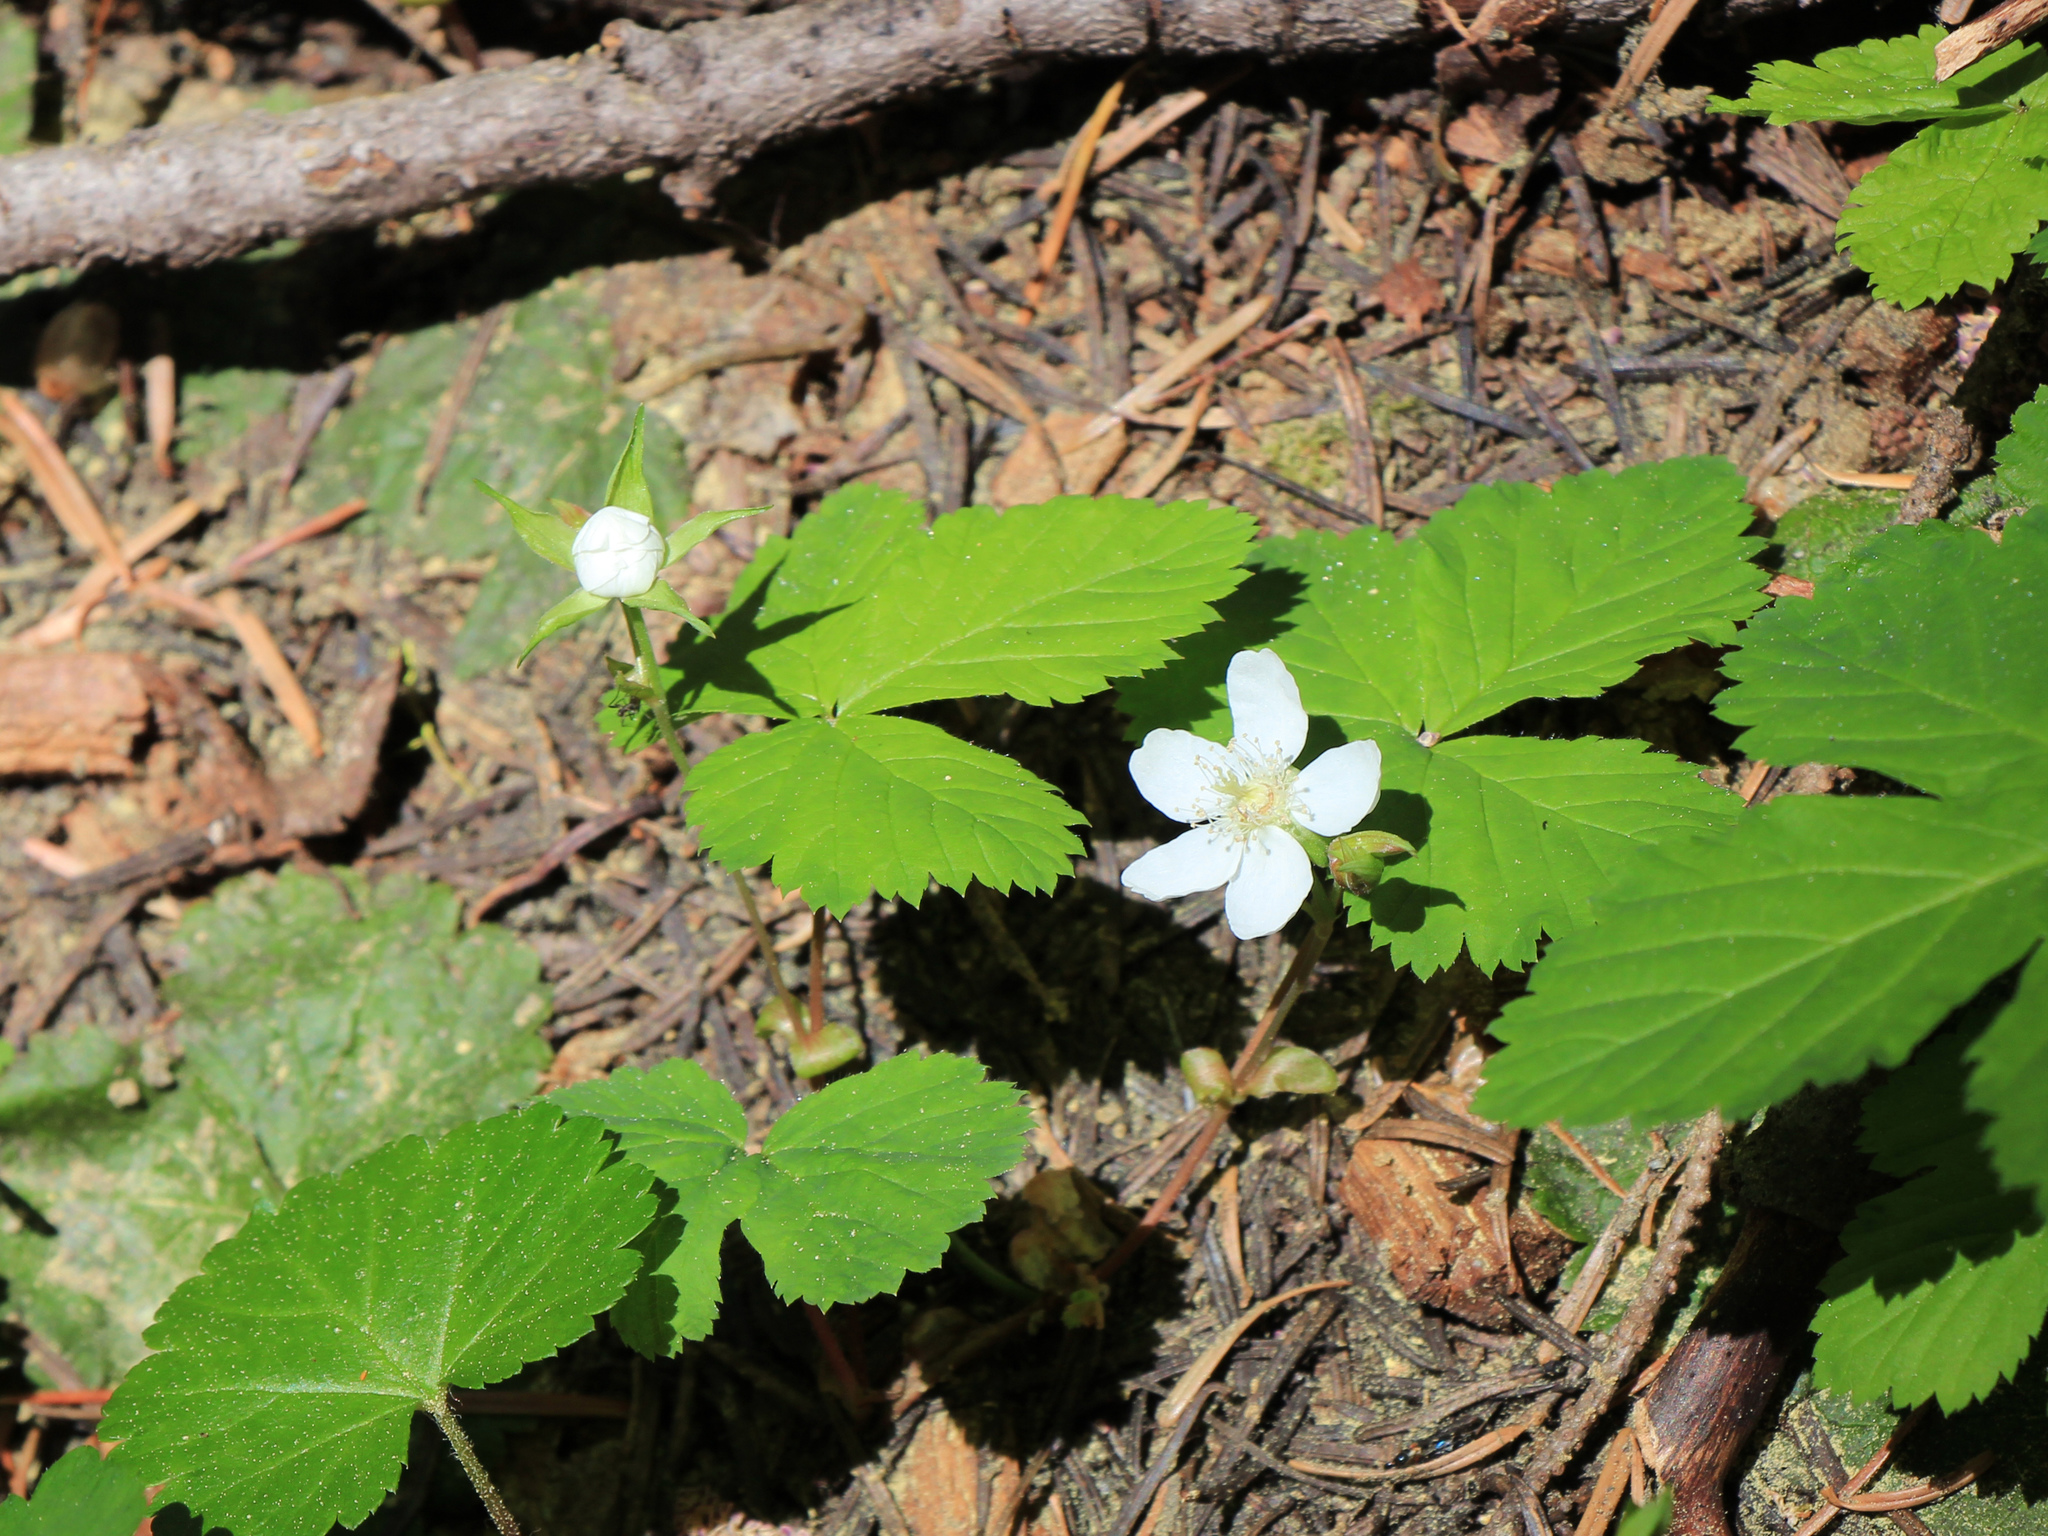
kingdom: Plantae
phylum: Tracheophyta
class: Magnoliopsida
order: Rosales
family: Rosaceae
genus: Fragaria
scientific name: Fragaria vesca
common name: Wild strawberry
